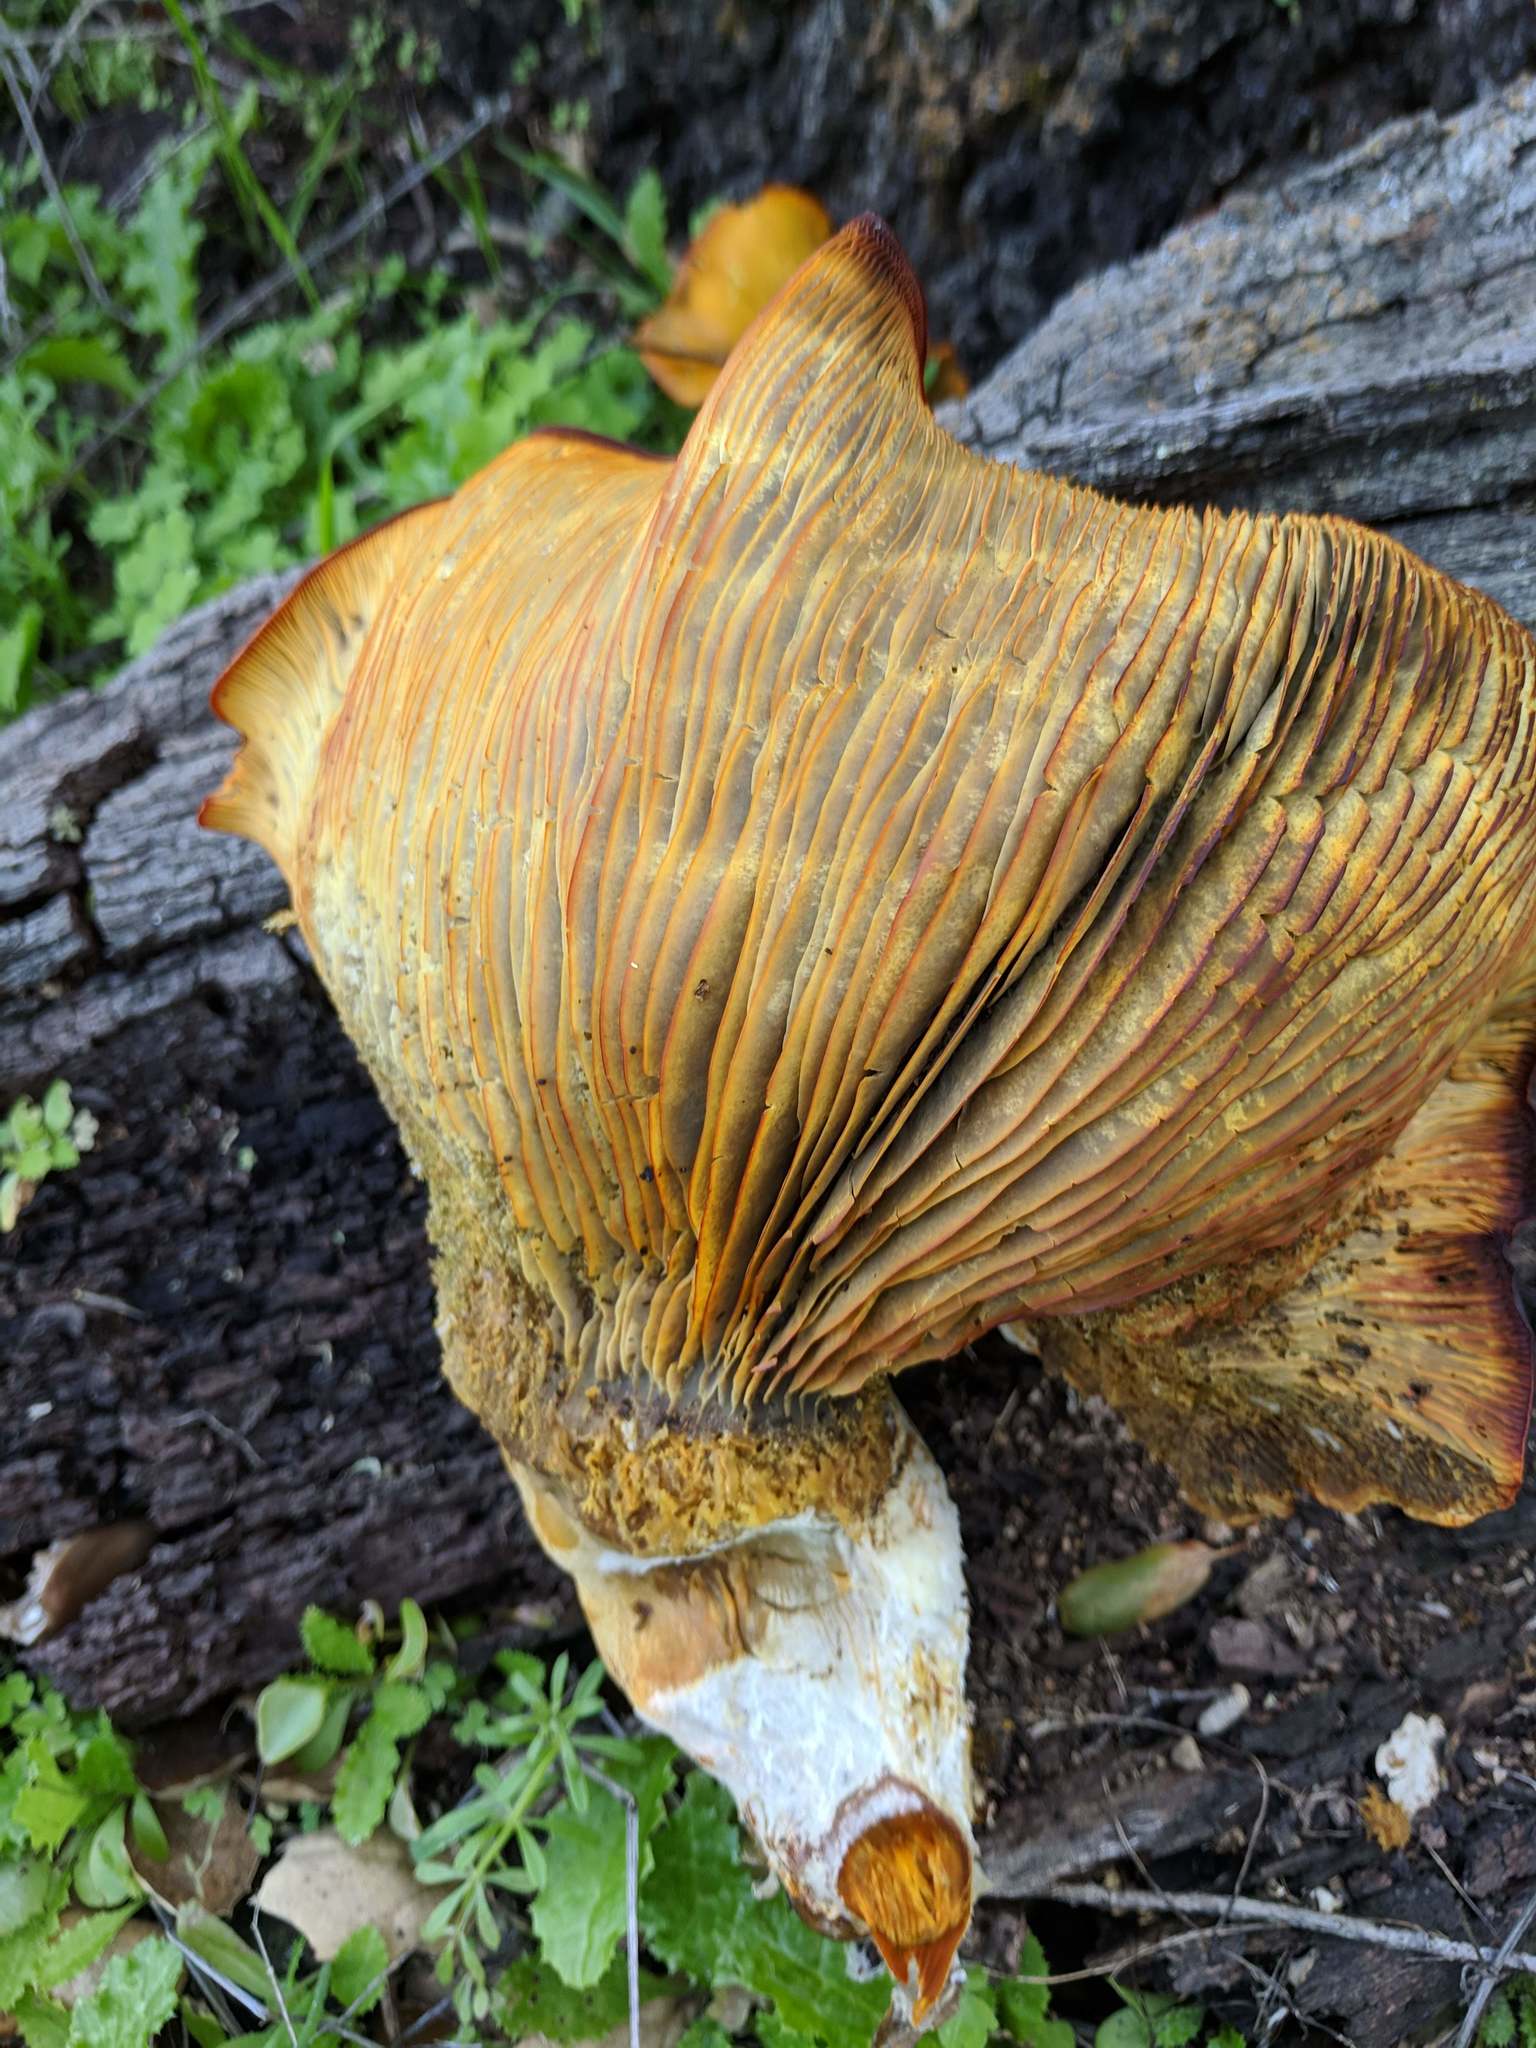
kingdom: Fungi
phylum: Basidiomycota
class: Agaricomycetes
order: Agaricales
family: Omphalotaceae
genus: Omphalotus
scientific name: Omphalotus olivascens
